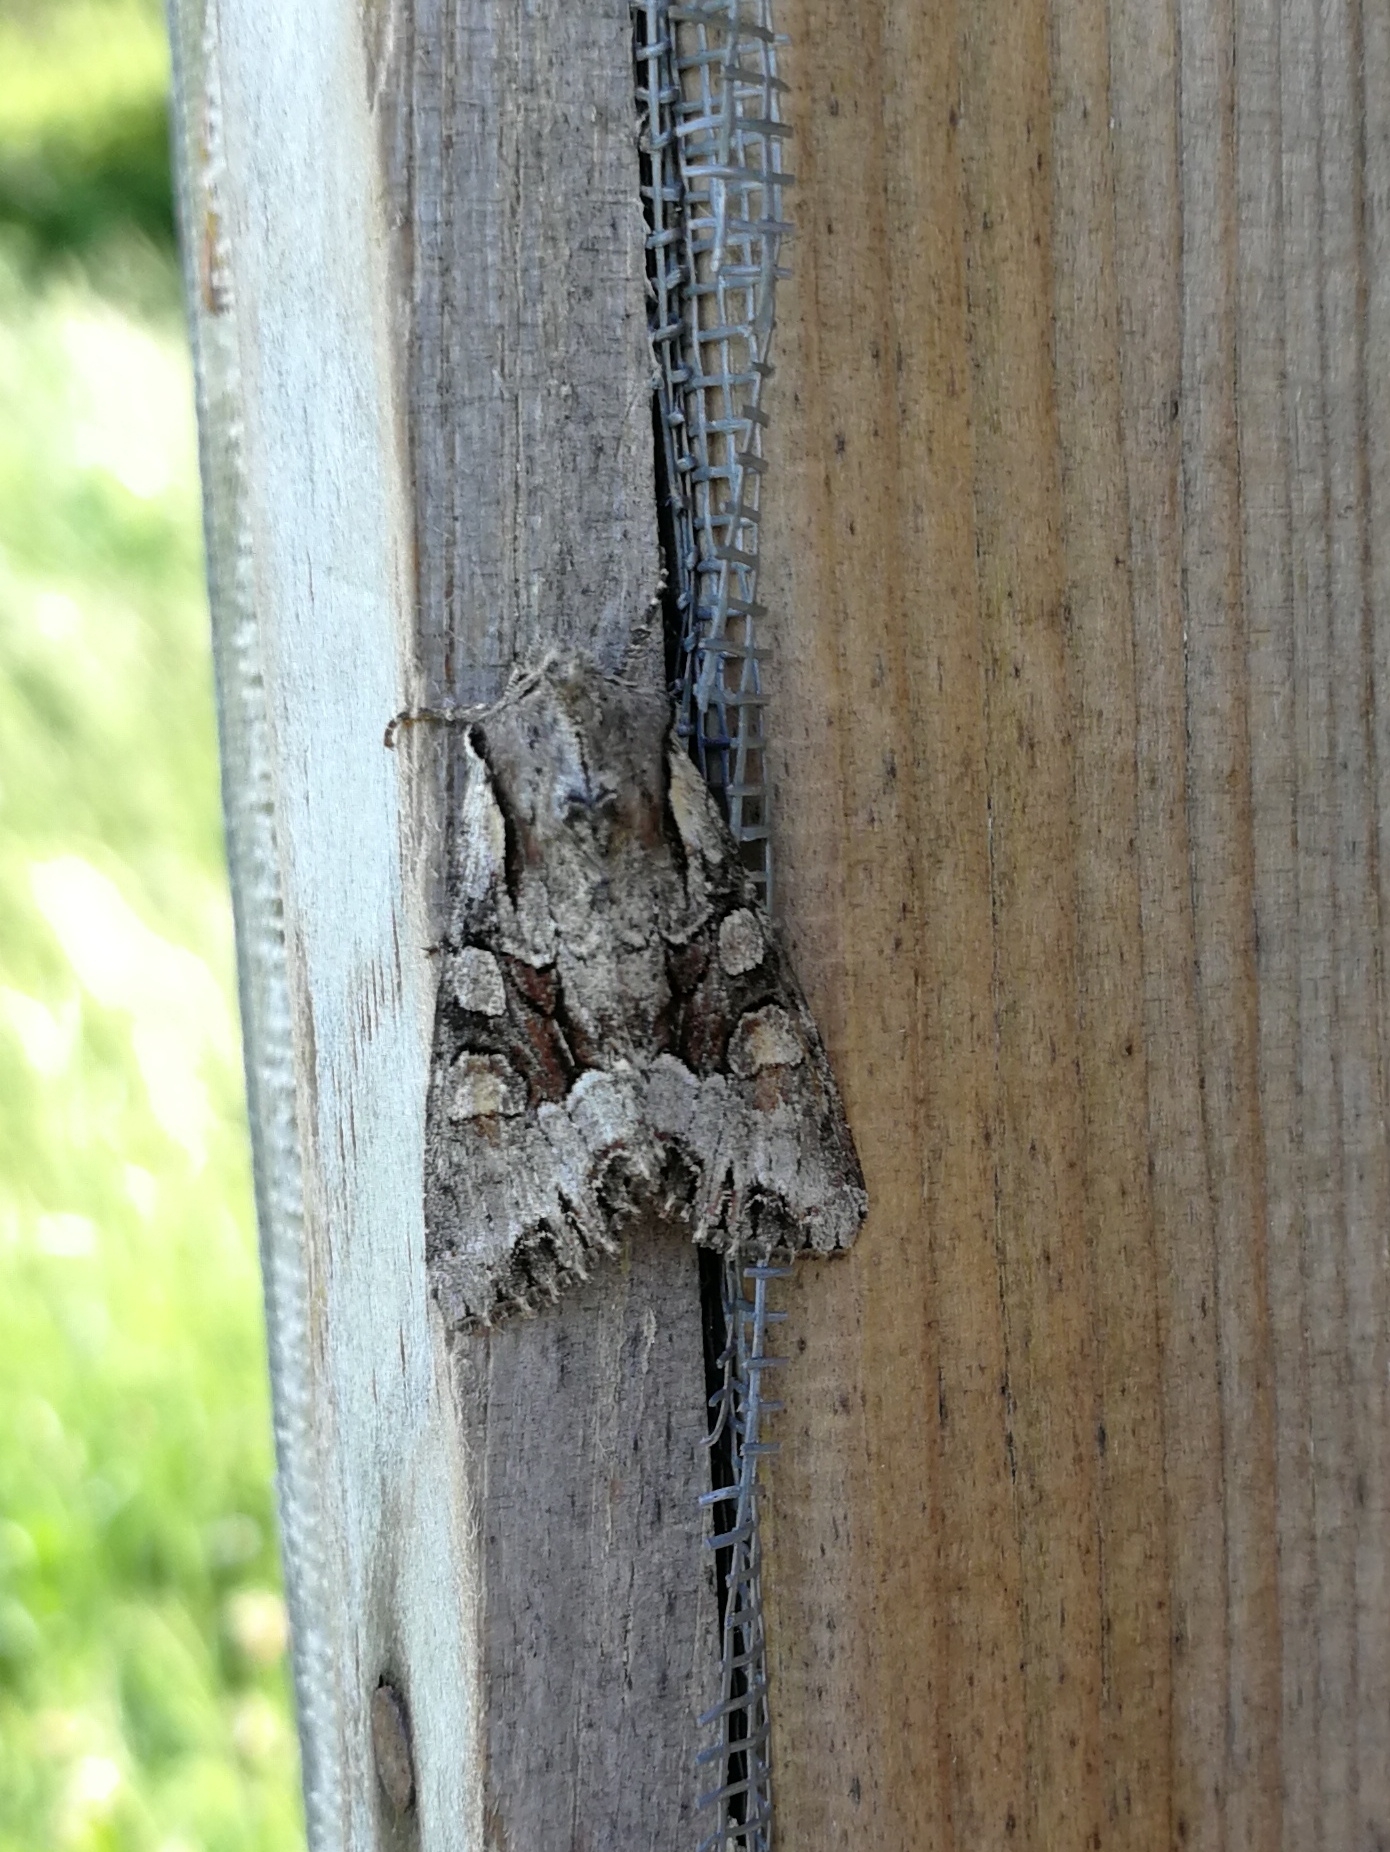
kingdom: Animalia
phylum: Arthropoda
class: Insecta
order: Lepidoptera
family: Noctuidae
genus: Lacanobia
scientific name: Lacanobia w-latinum
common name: Light brocade
